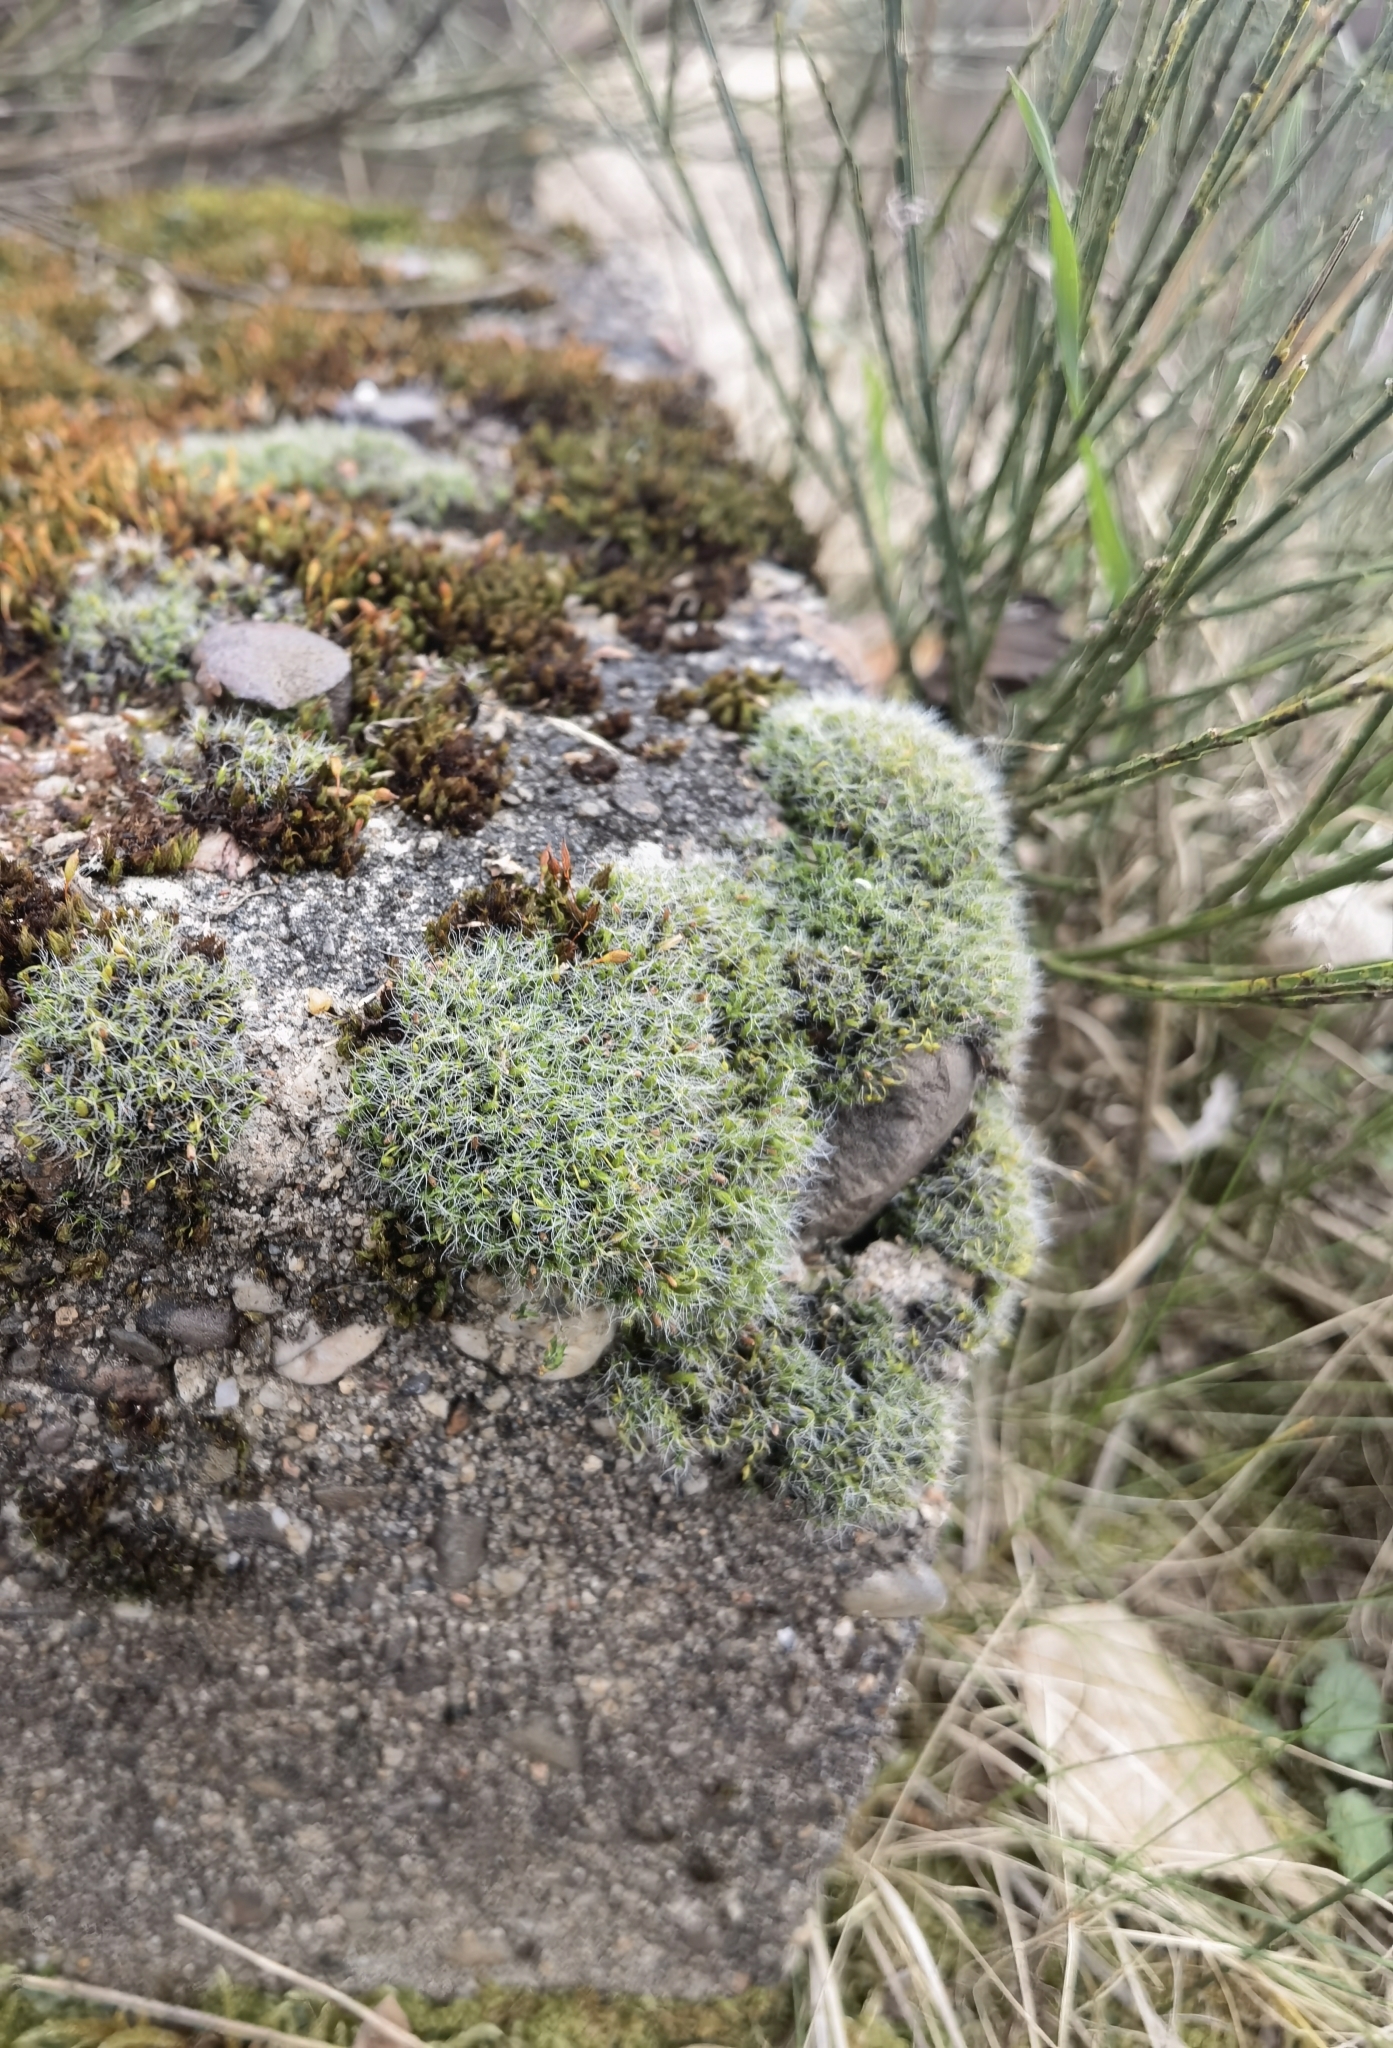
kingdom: Plantae
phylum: Bryophyta
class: Bryopsida
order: Grimmiales
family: Grimmiaceae
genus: Grimmia
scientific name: Grimmia pulvinata
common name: Grey-cushioned grimmia
